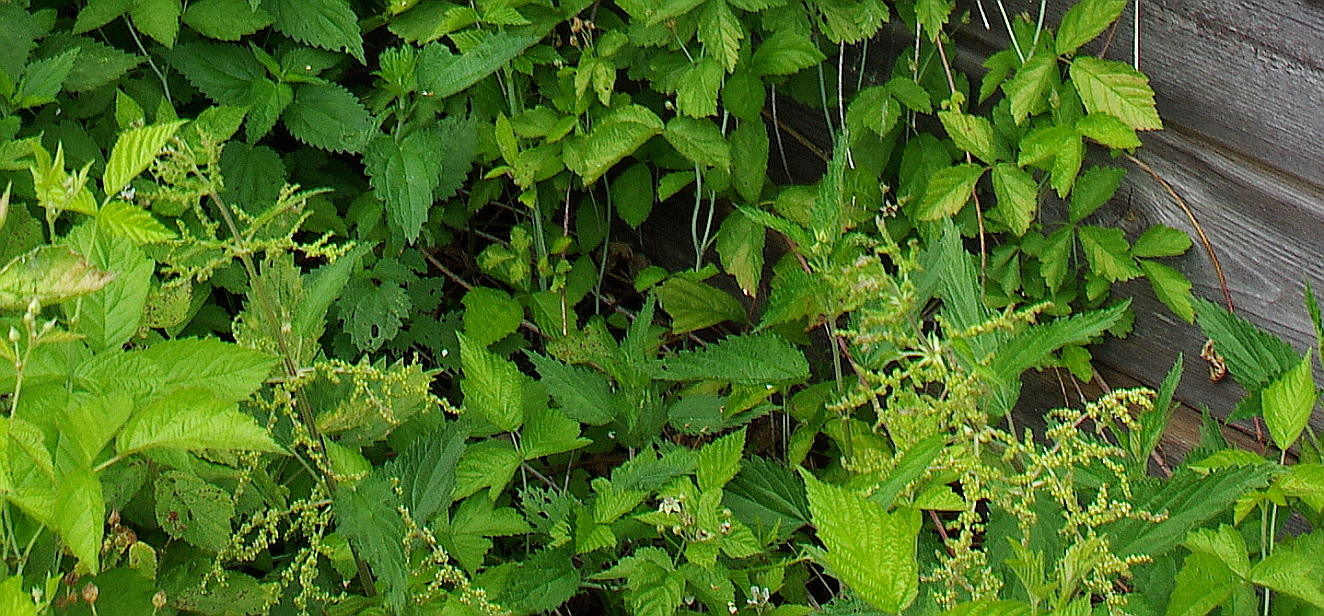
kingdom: Plantae
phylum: Tracheophyta
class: Magnoliopsida
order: Rosales
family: Urticaceae
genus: Urtica
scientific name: Urtica dioica
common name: Common nettle
